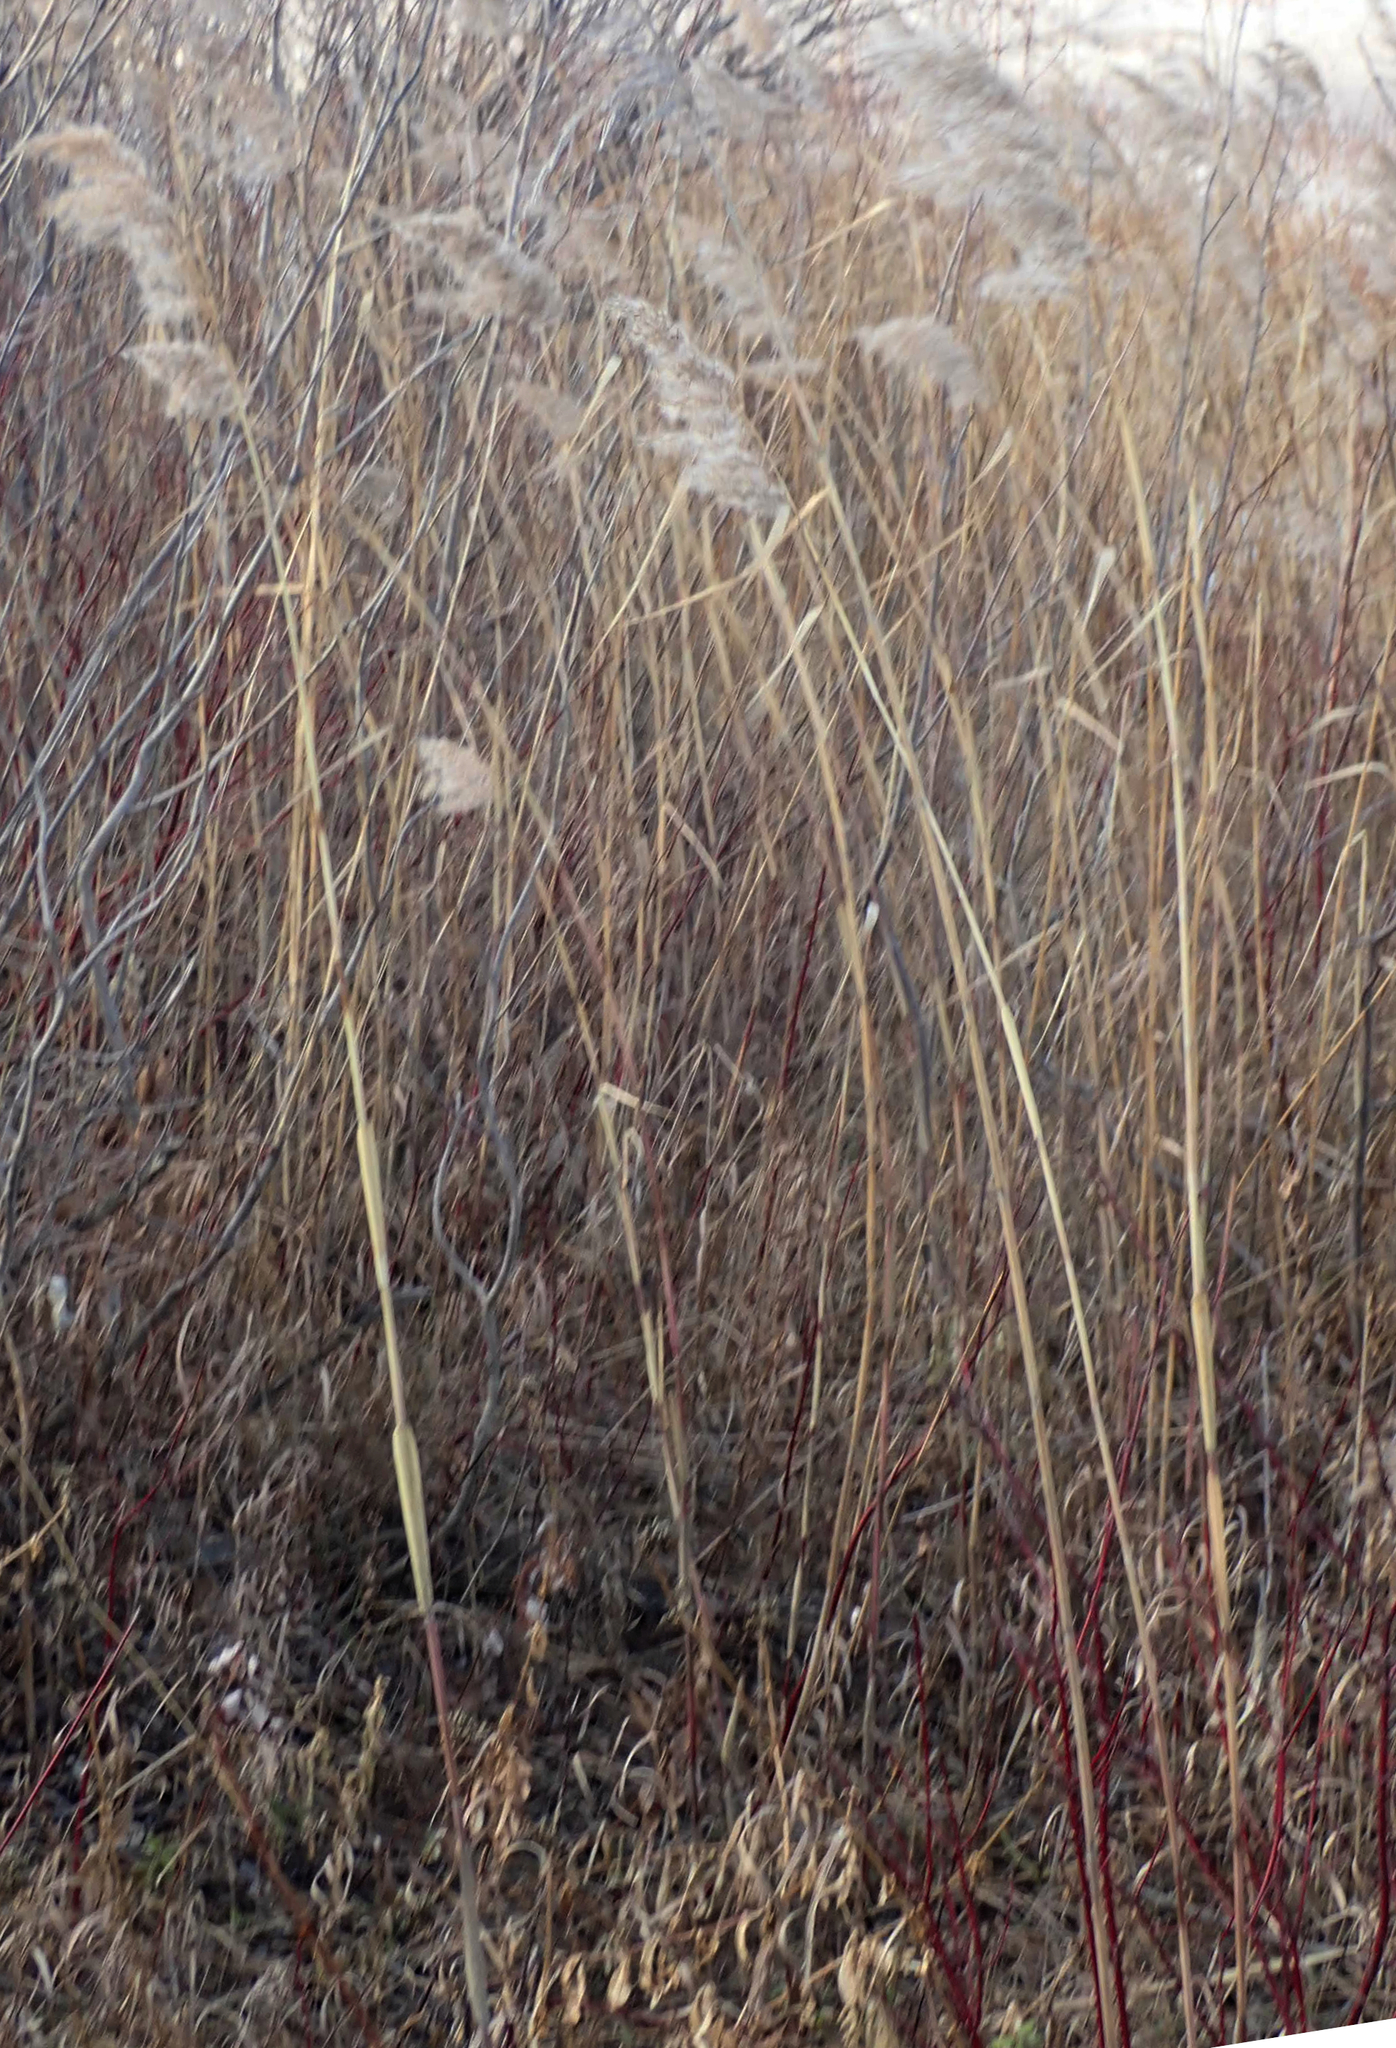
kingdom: Plantae
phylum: Tracheophyta
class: Liliopsida
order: Poales
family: Poaceae
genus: Phragmites
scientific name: Phragmites australis
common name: Common reed
